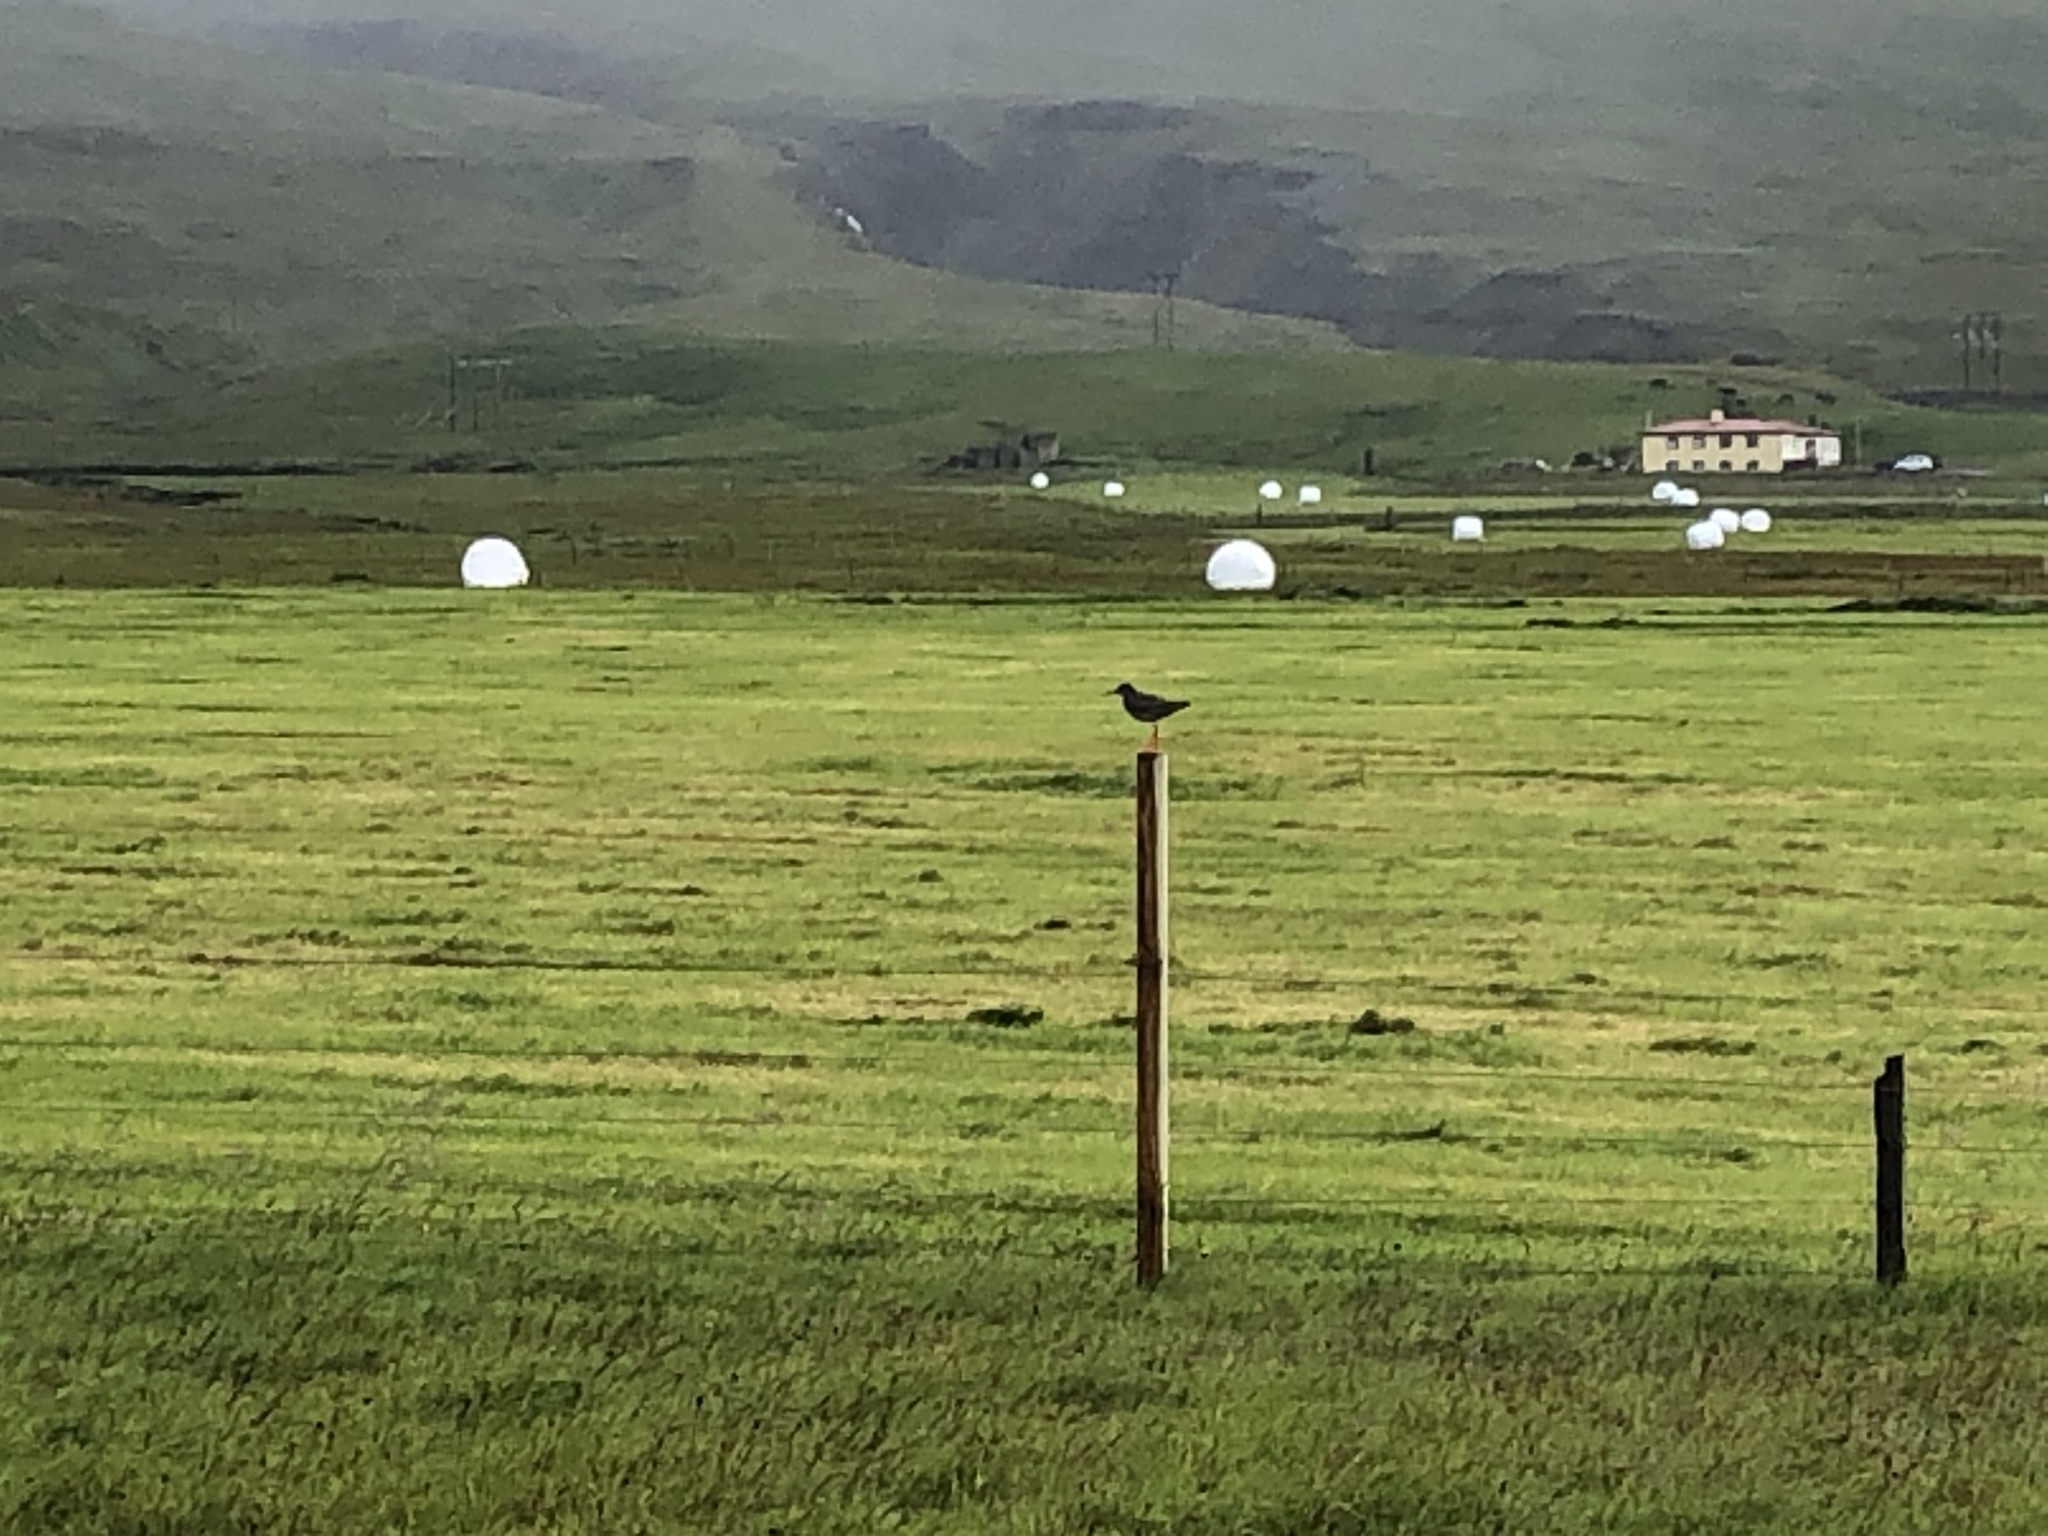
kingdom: Animalia
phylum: Chordata
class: Aves
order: Charadriiformes
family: Scolopacidae
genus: Tringa
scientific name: Tringa totanus
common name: Common redshank
